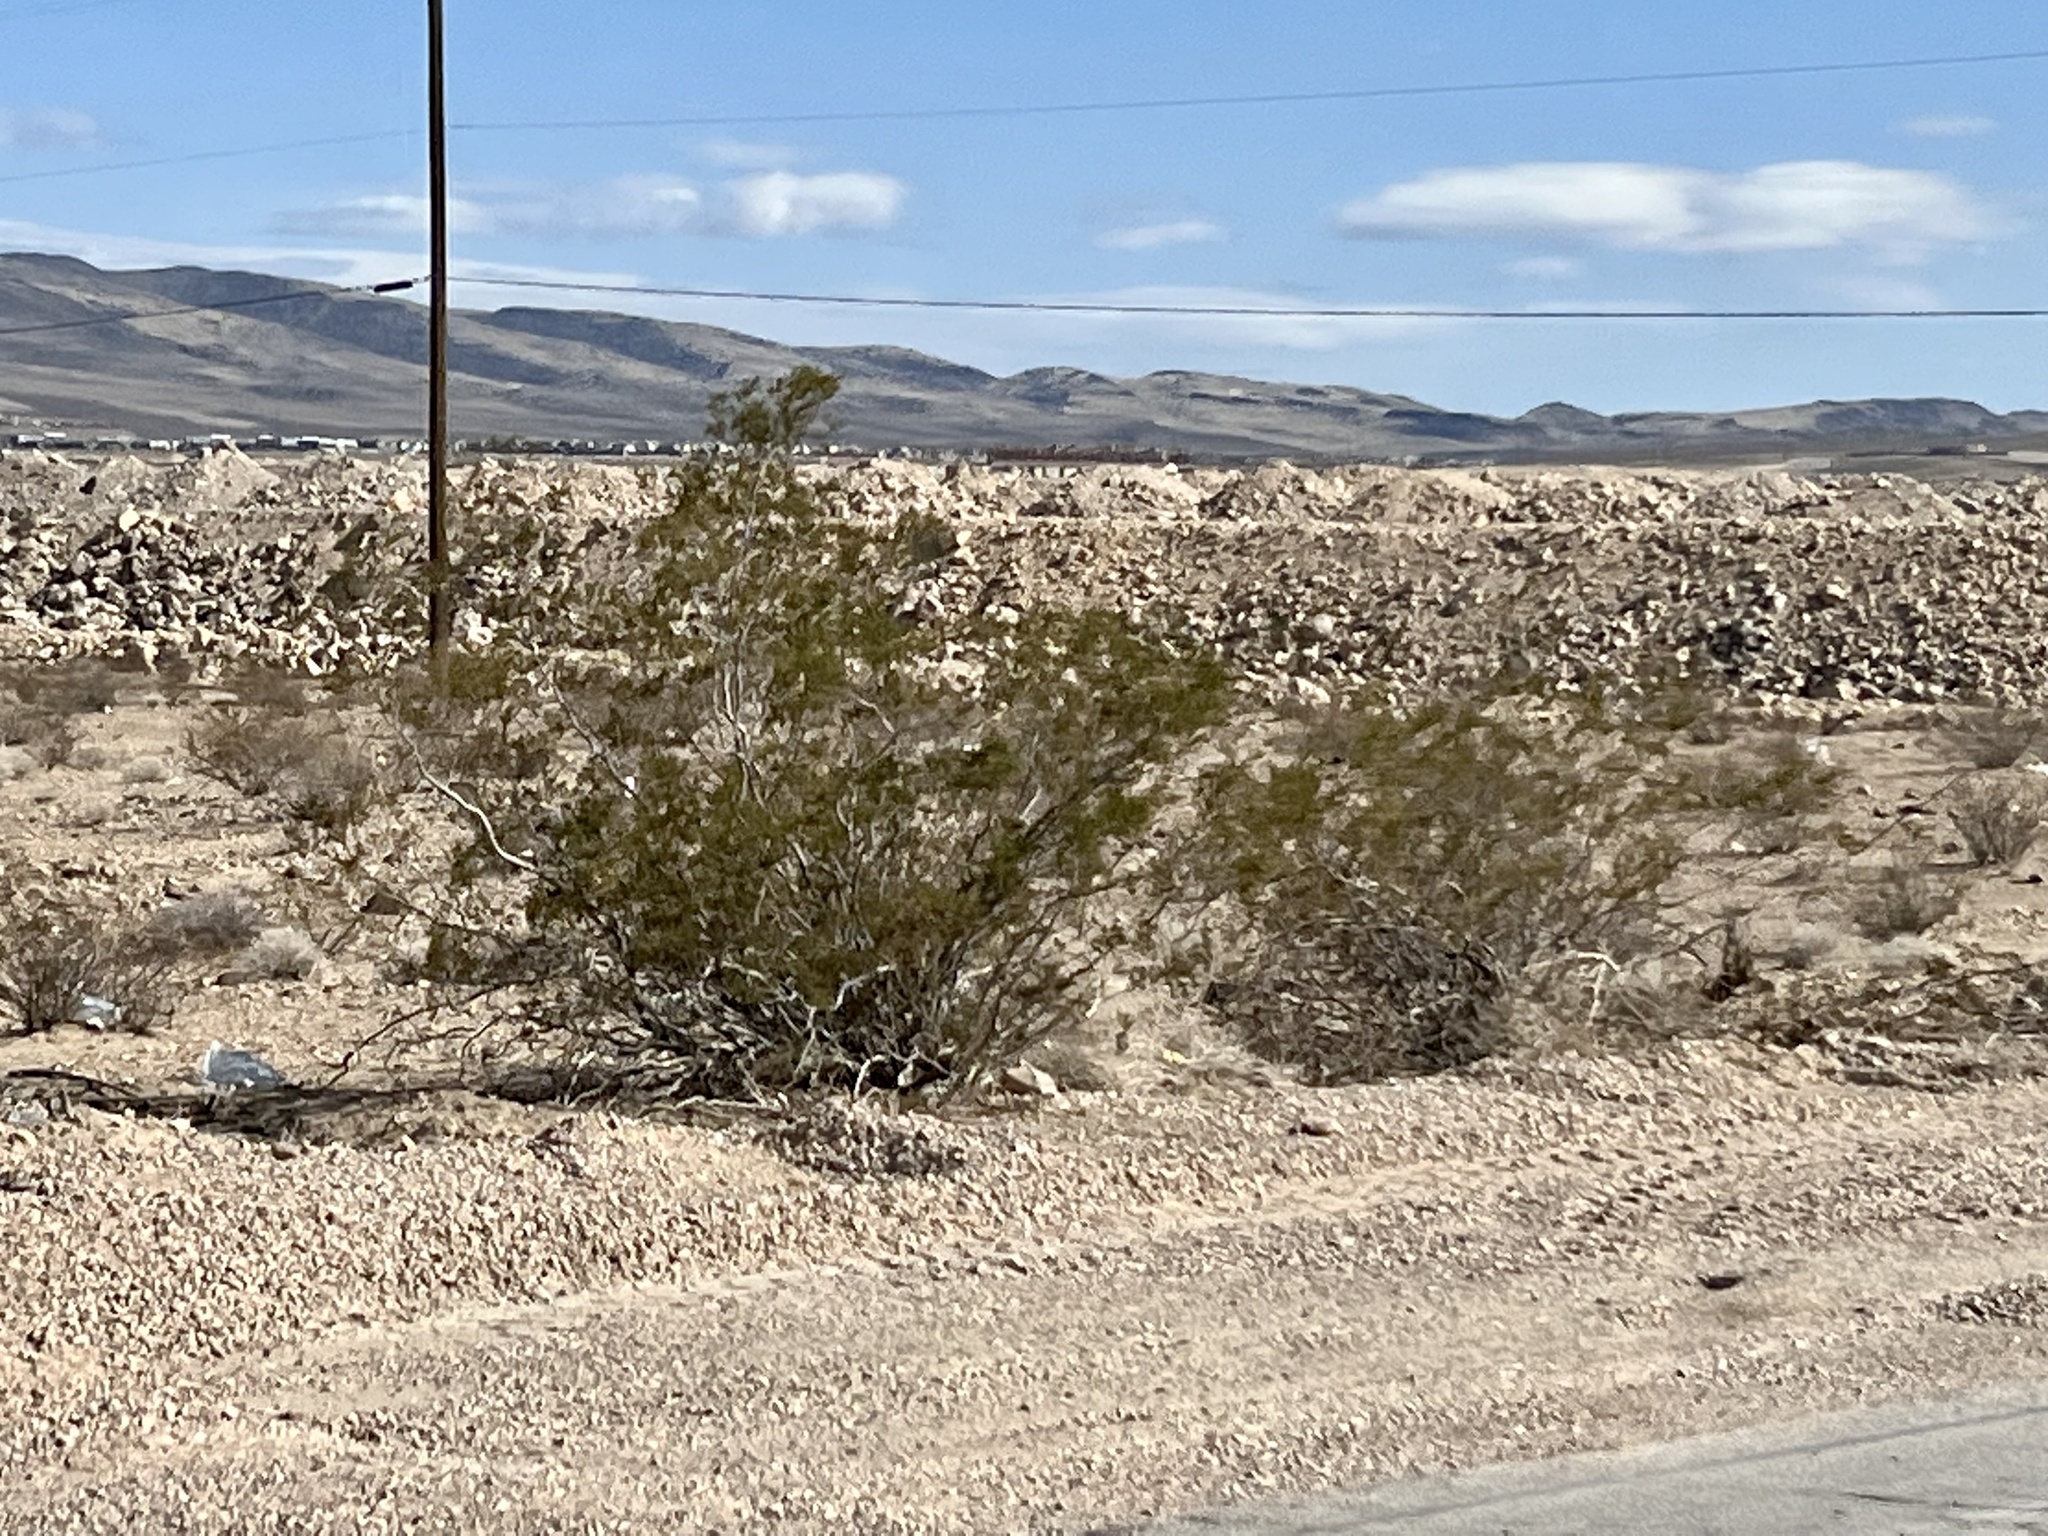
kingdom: Plantae
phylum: Tracheophyta
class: Magnoliopsida
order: Zygophyllales
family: Zygophyllaceae
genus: Larrea
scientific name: Larrea tridentata
